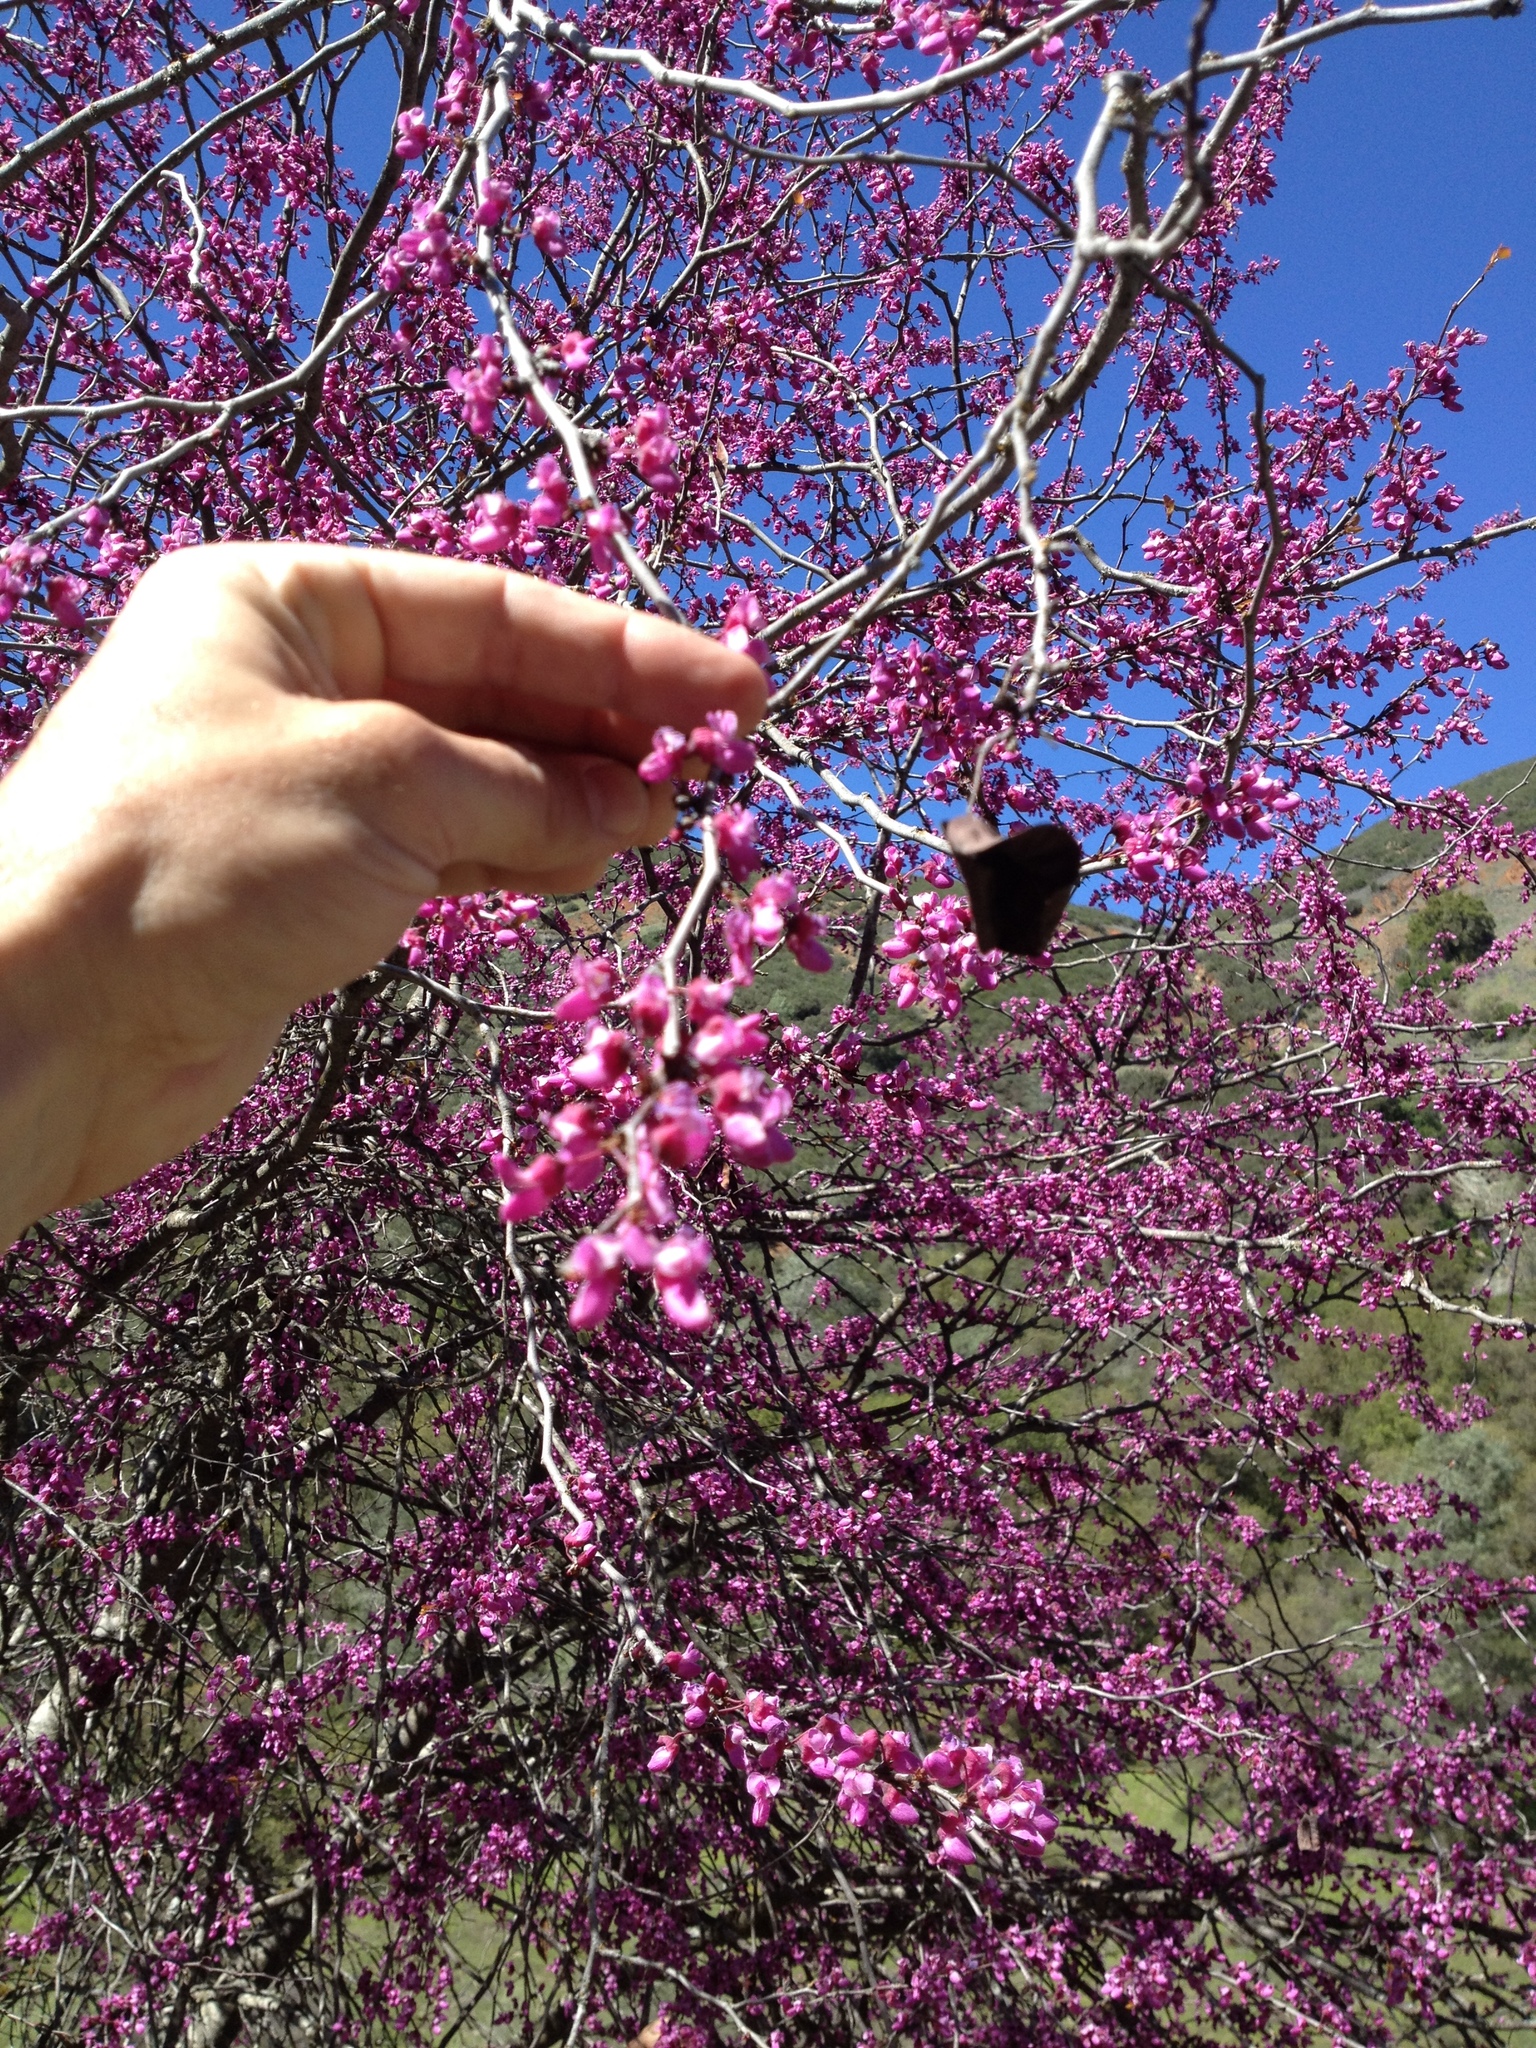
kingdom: Plantae
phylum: Tracheophyta
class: Magnoliopsida
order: Fabales
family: Fabaceae
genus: Cercis
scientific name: Cercis occidentalis
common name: California redbud
